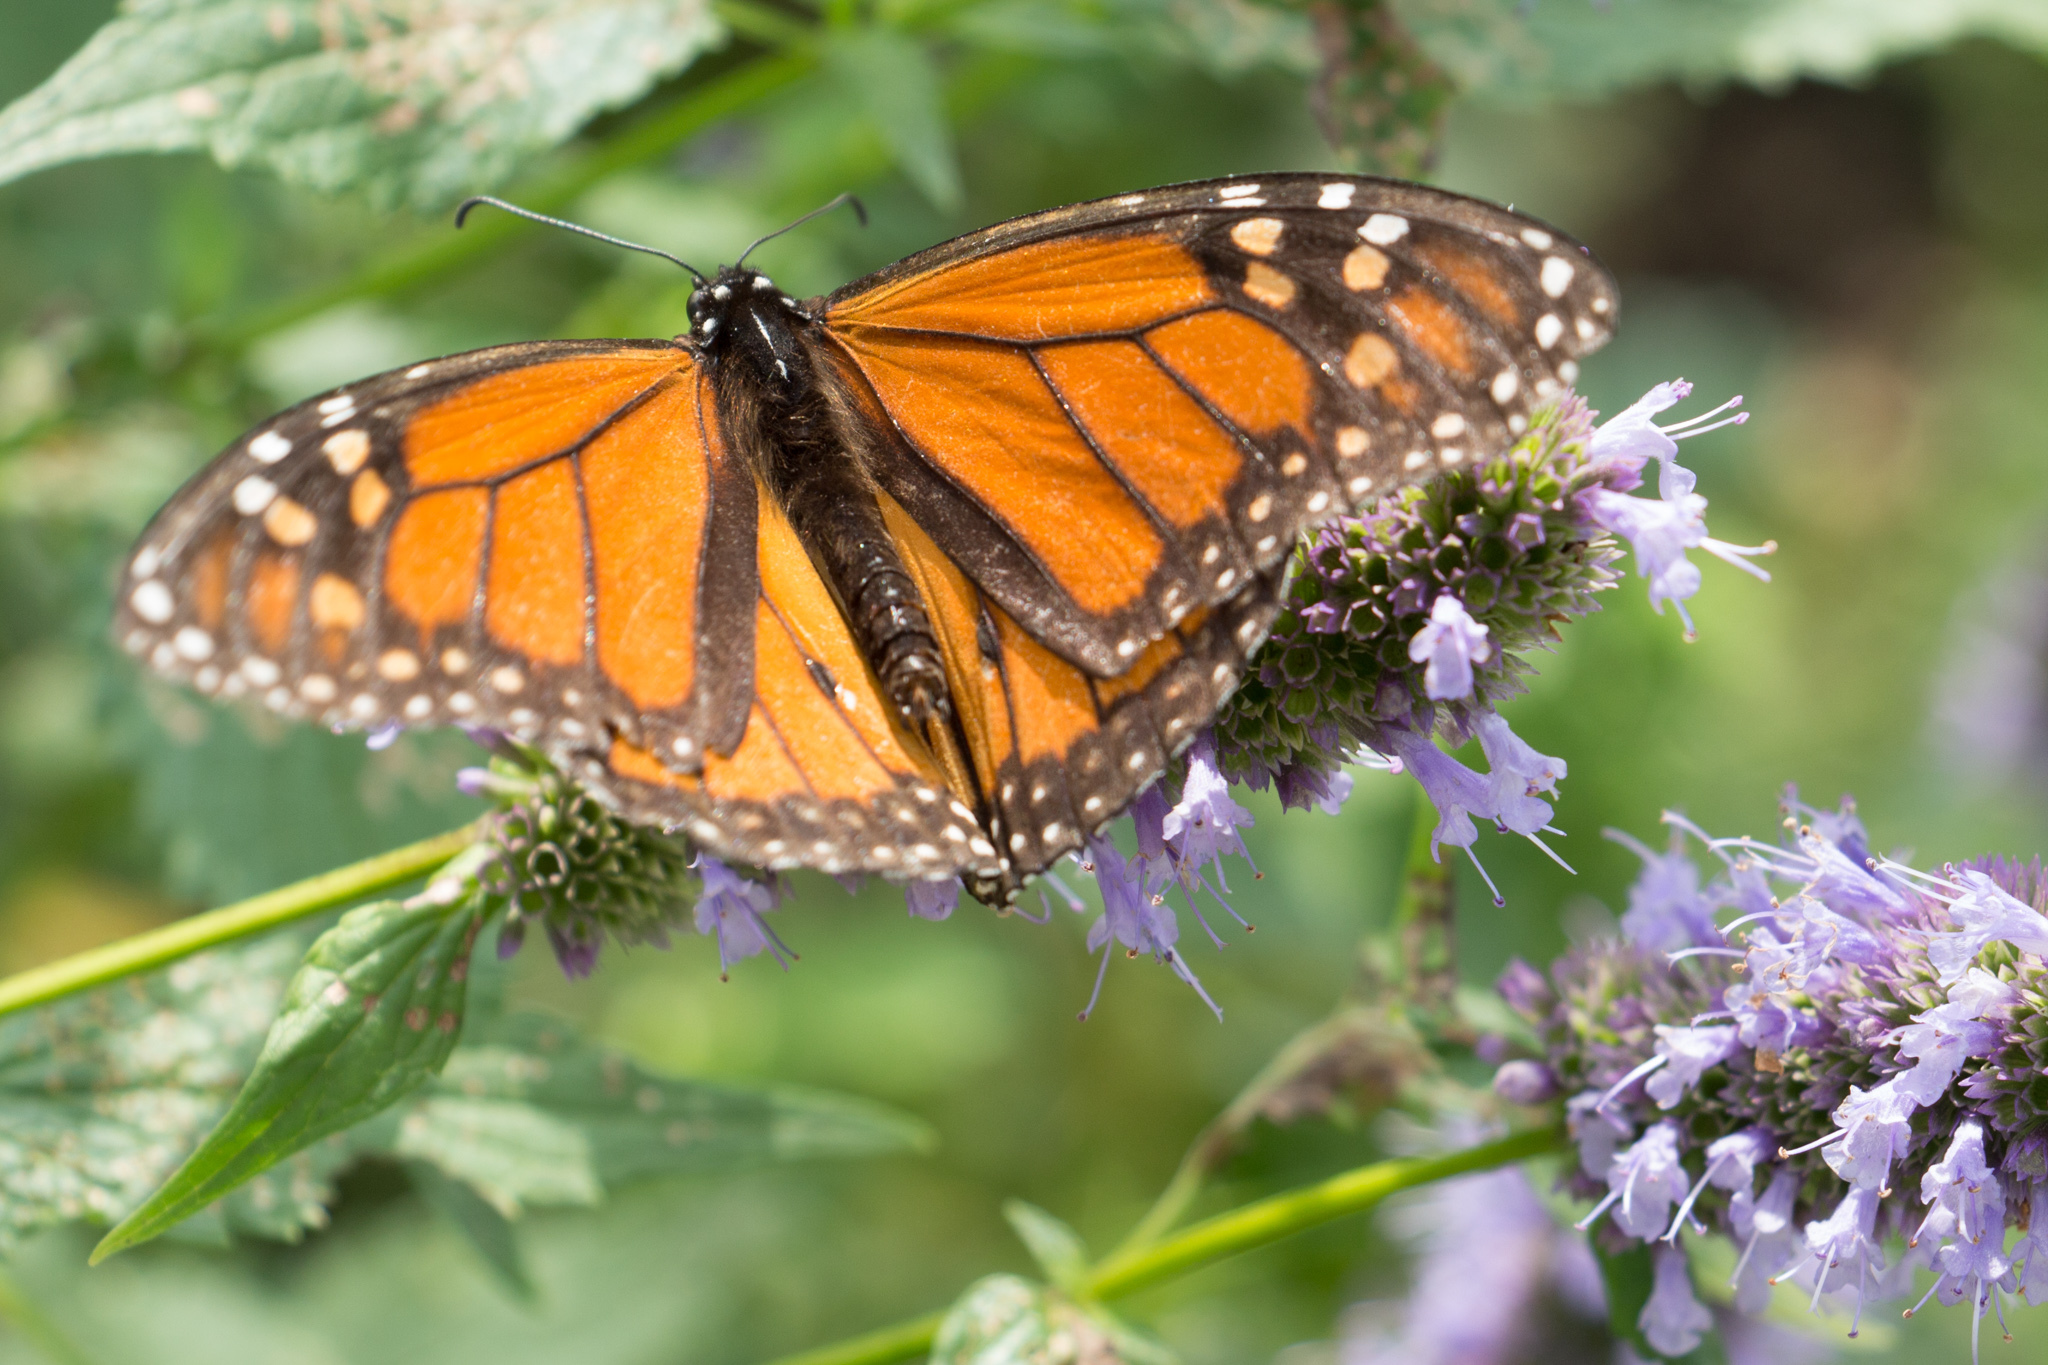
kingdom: Animalia
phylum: Arthropoda
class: Insecta
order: Lepidoptera
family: Nymphalidae
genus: Danaus
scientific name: Danaus plexippus
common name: Monarch
